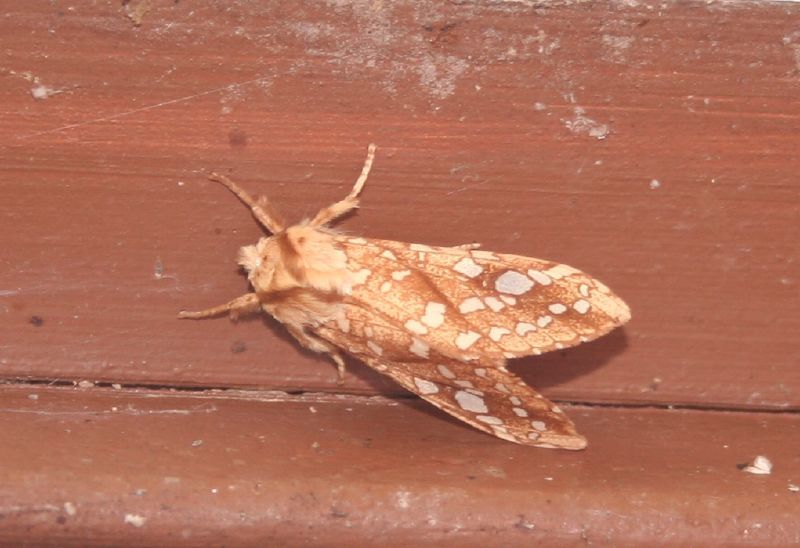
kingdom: Animalia
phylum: Arthropoda
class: Insecta
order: Lepidoptera
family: Erebidae
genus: Lophocampa
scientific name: Lophocampa caryae
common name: Hickory tussock moth
